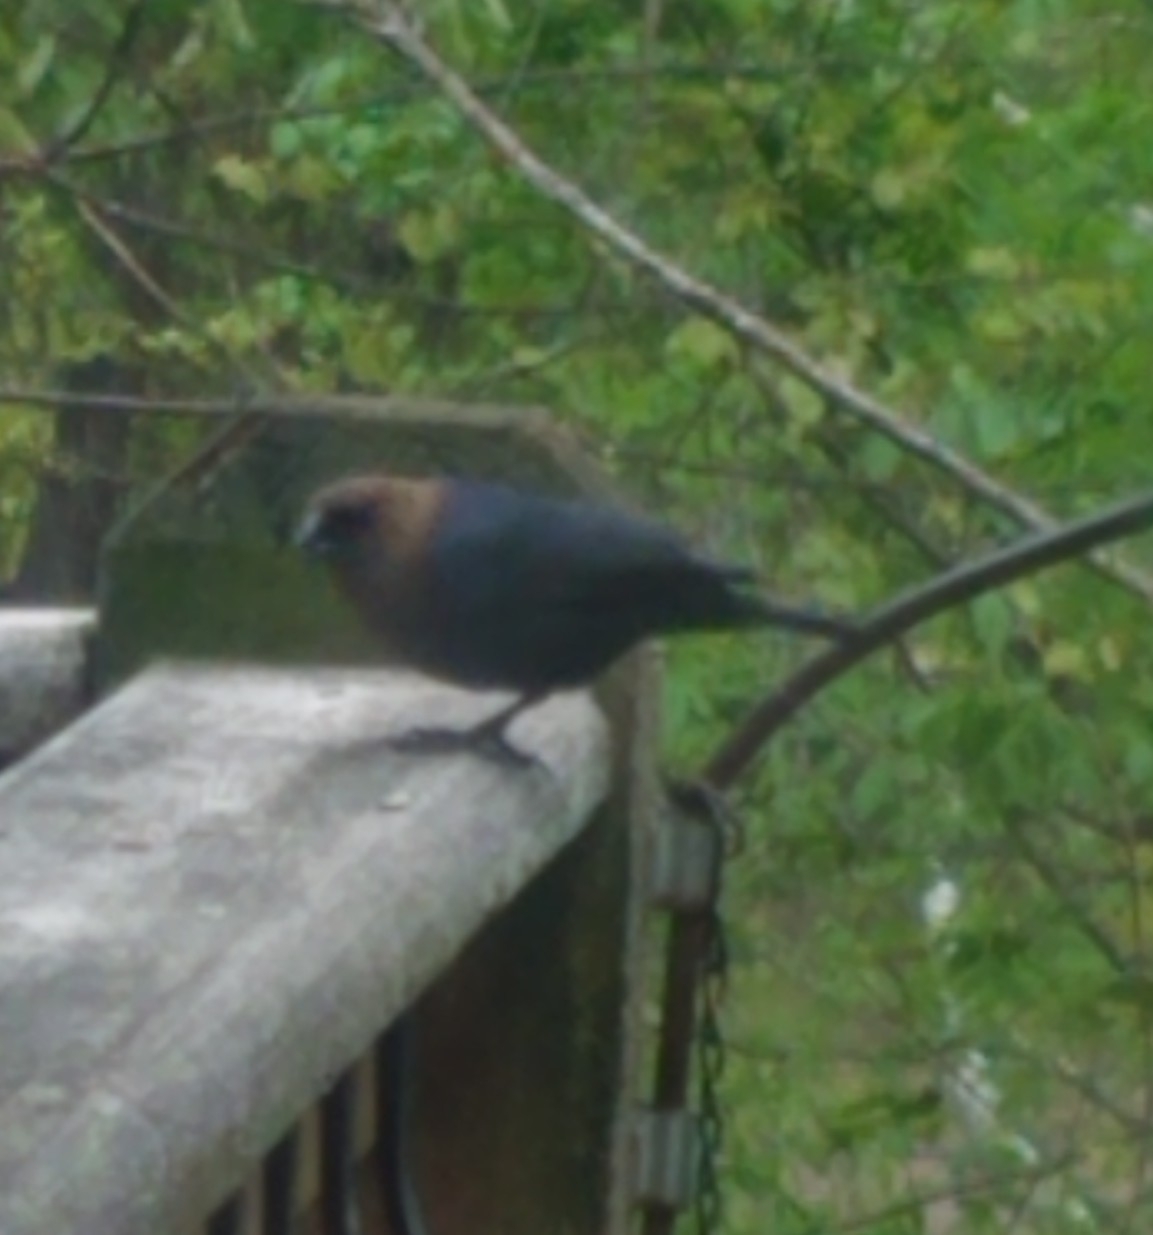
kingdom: Animalia
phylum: Chordata
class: Aves
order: Passeriformes
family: Icteridae
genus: Molothrus
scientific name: Molothrus ater
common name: Brown-headed cowbird
